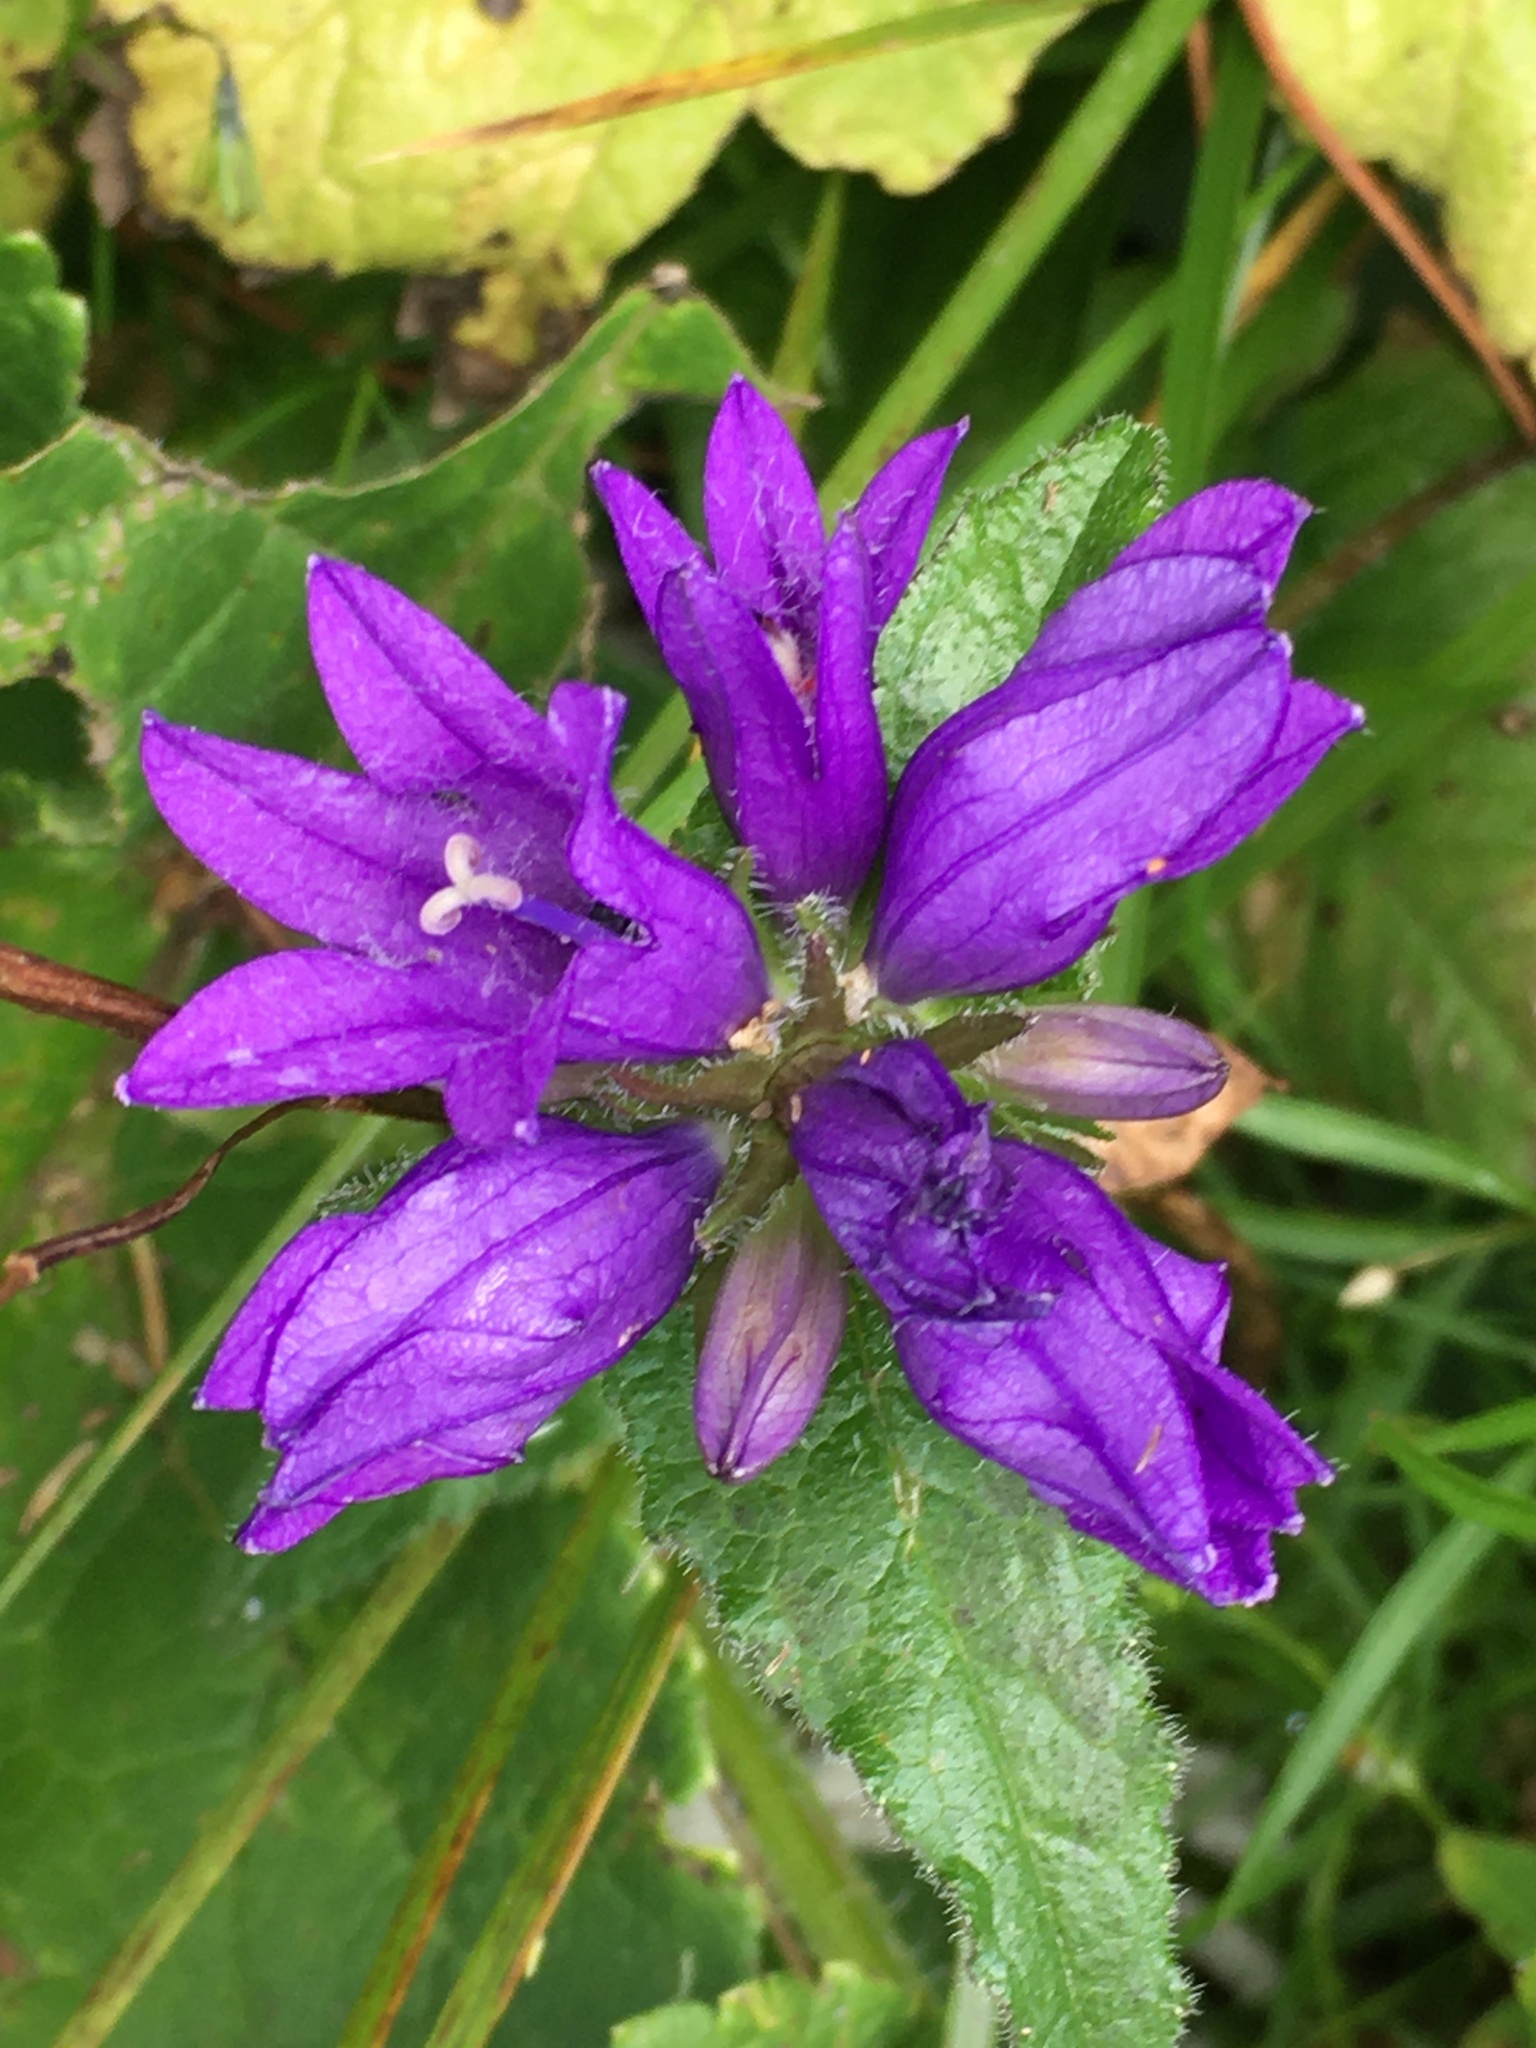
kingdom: Plantae
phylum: Tracheophyta
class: Magnoliopsida
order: Asterales
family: Campanulaceae
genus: Campanula
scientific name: Campanula glomerata
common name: Clustered bellflower
